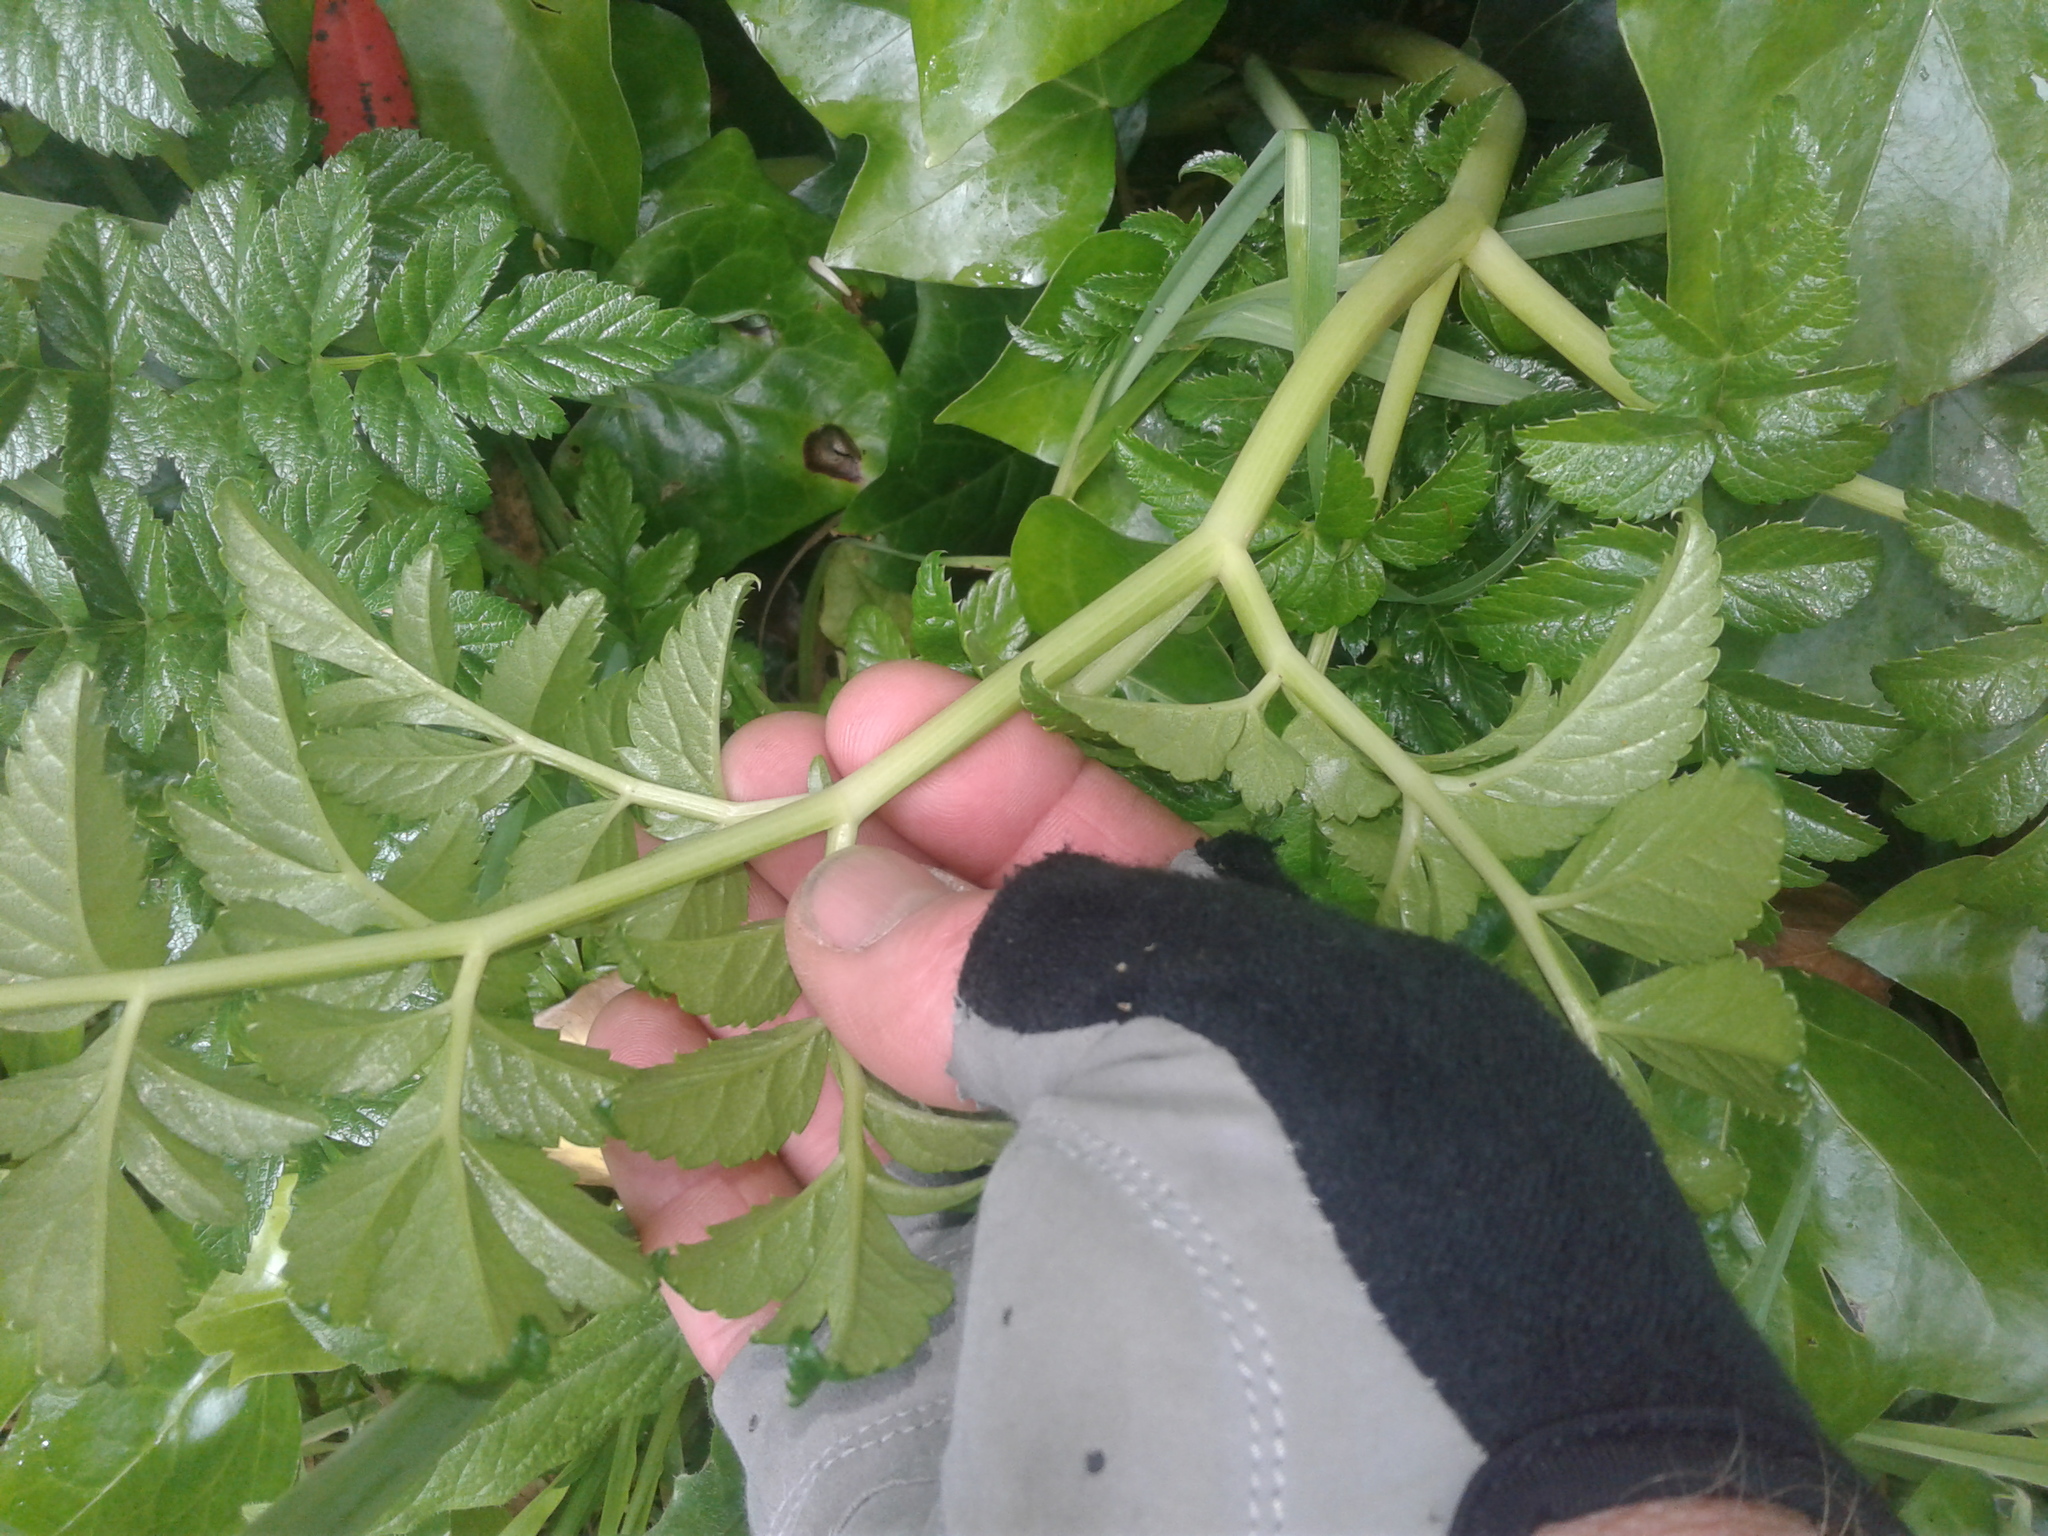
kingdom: Plantae
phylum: Tracheophyta
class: Magnoliopsida
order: Apiales
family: Apiaceae
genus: Angelica
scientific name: Angelica pachycarpa
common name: Portuguese angelica
